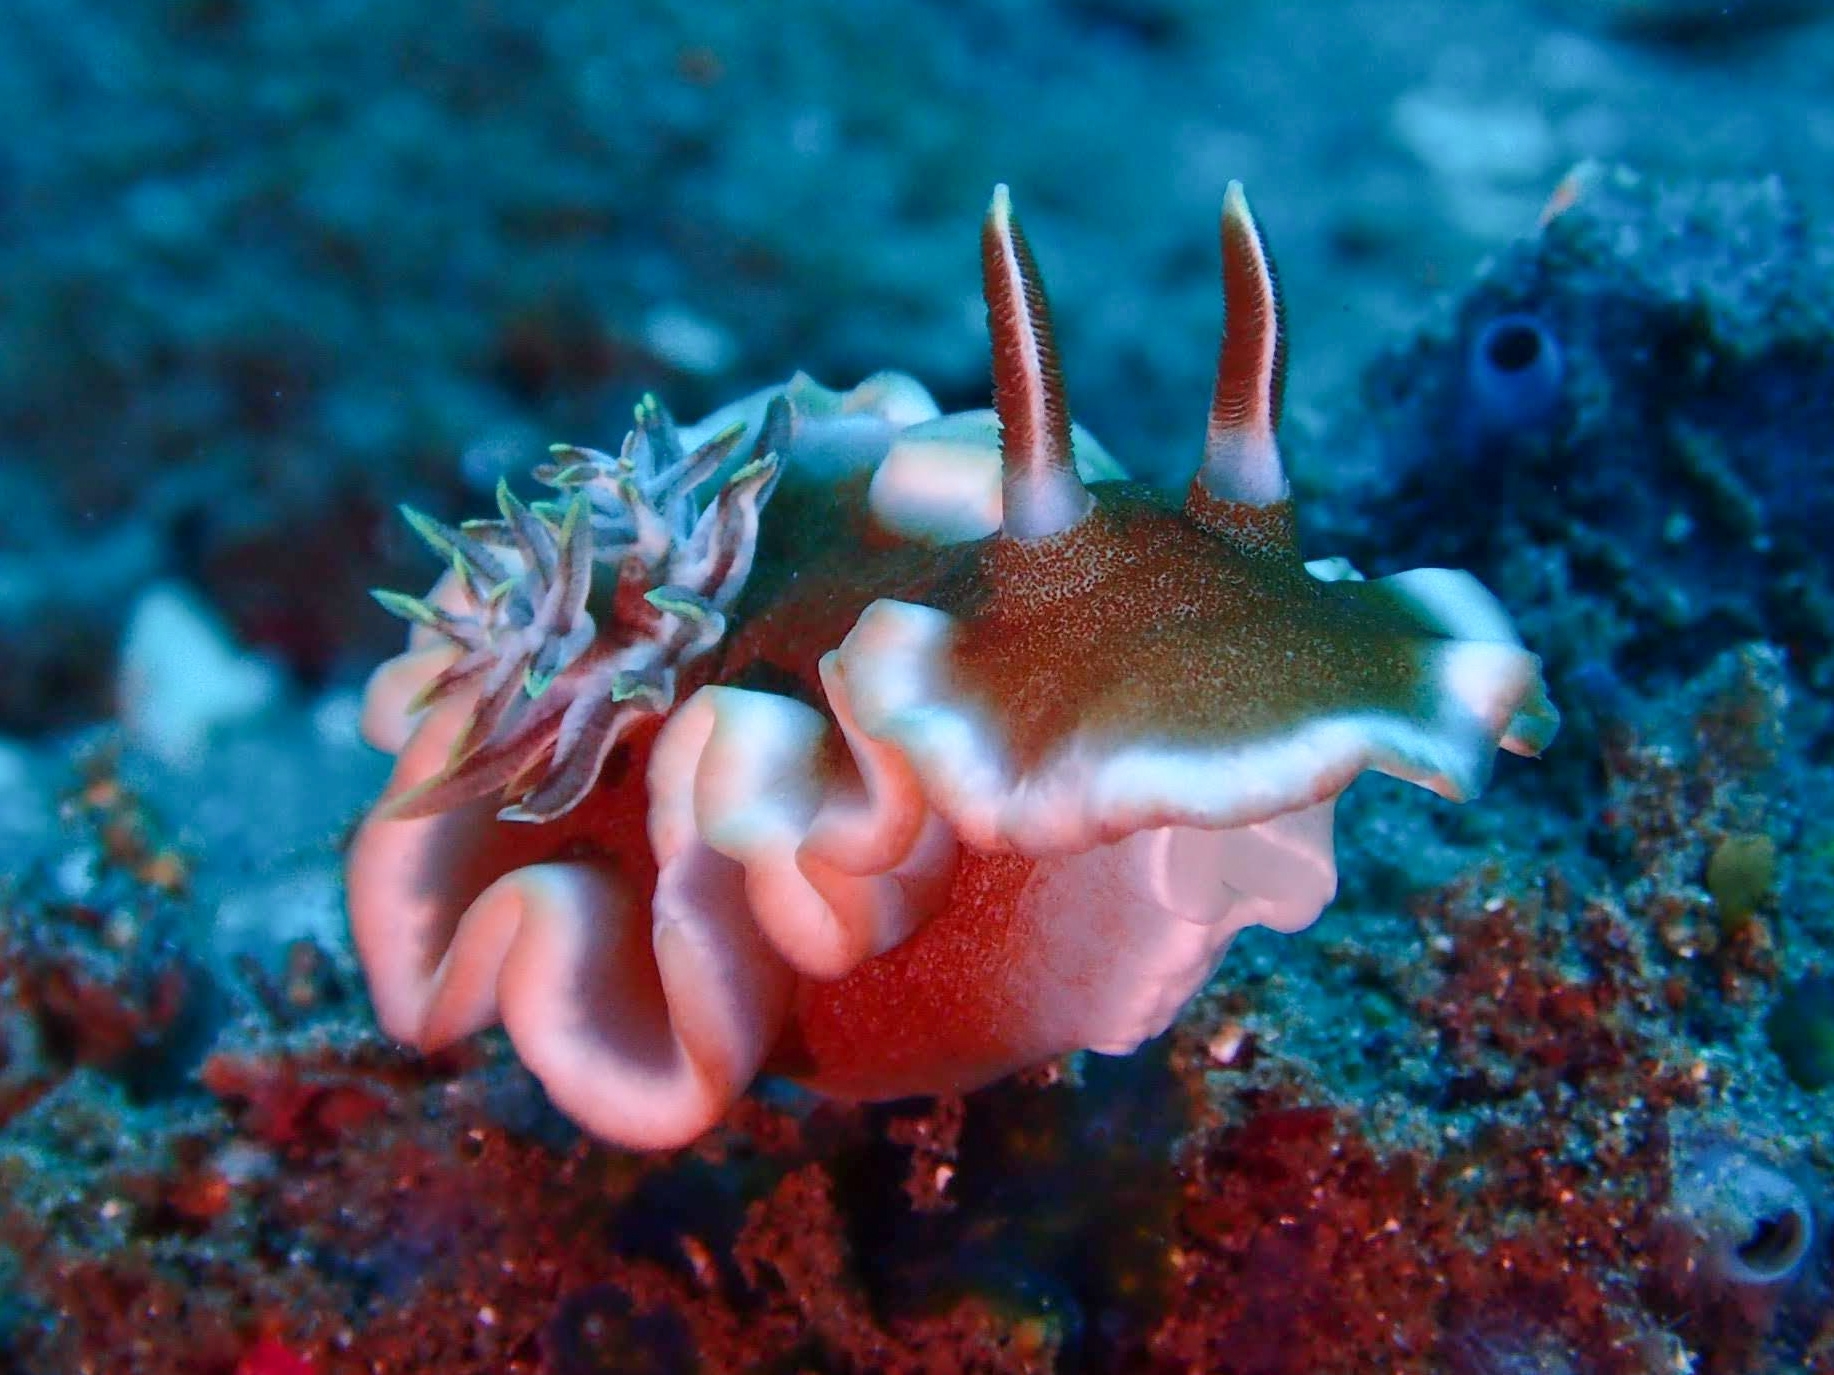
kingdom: Animalia
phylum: Mollusca
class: Gastropoda
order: Nudibranchia
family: Chromodorididae
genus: Glossodoris
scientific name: Glossodoris rufomarginata
